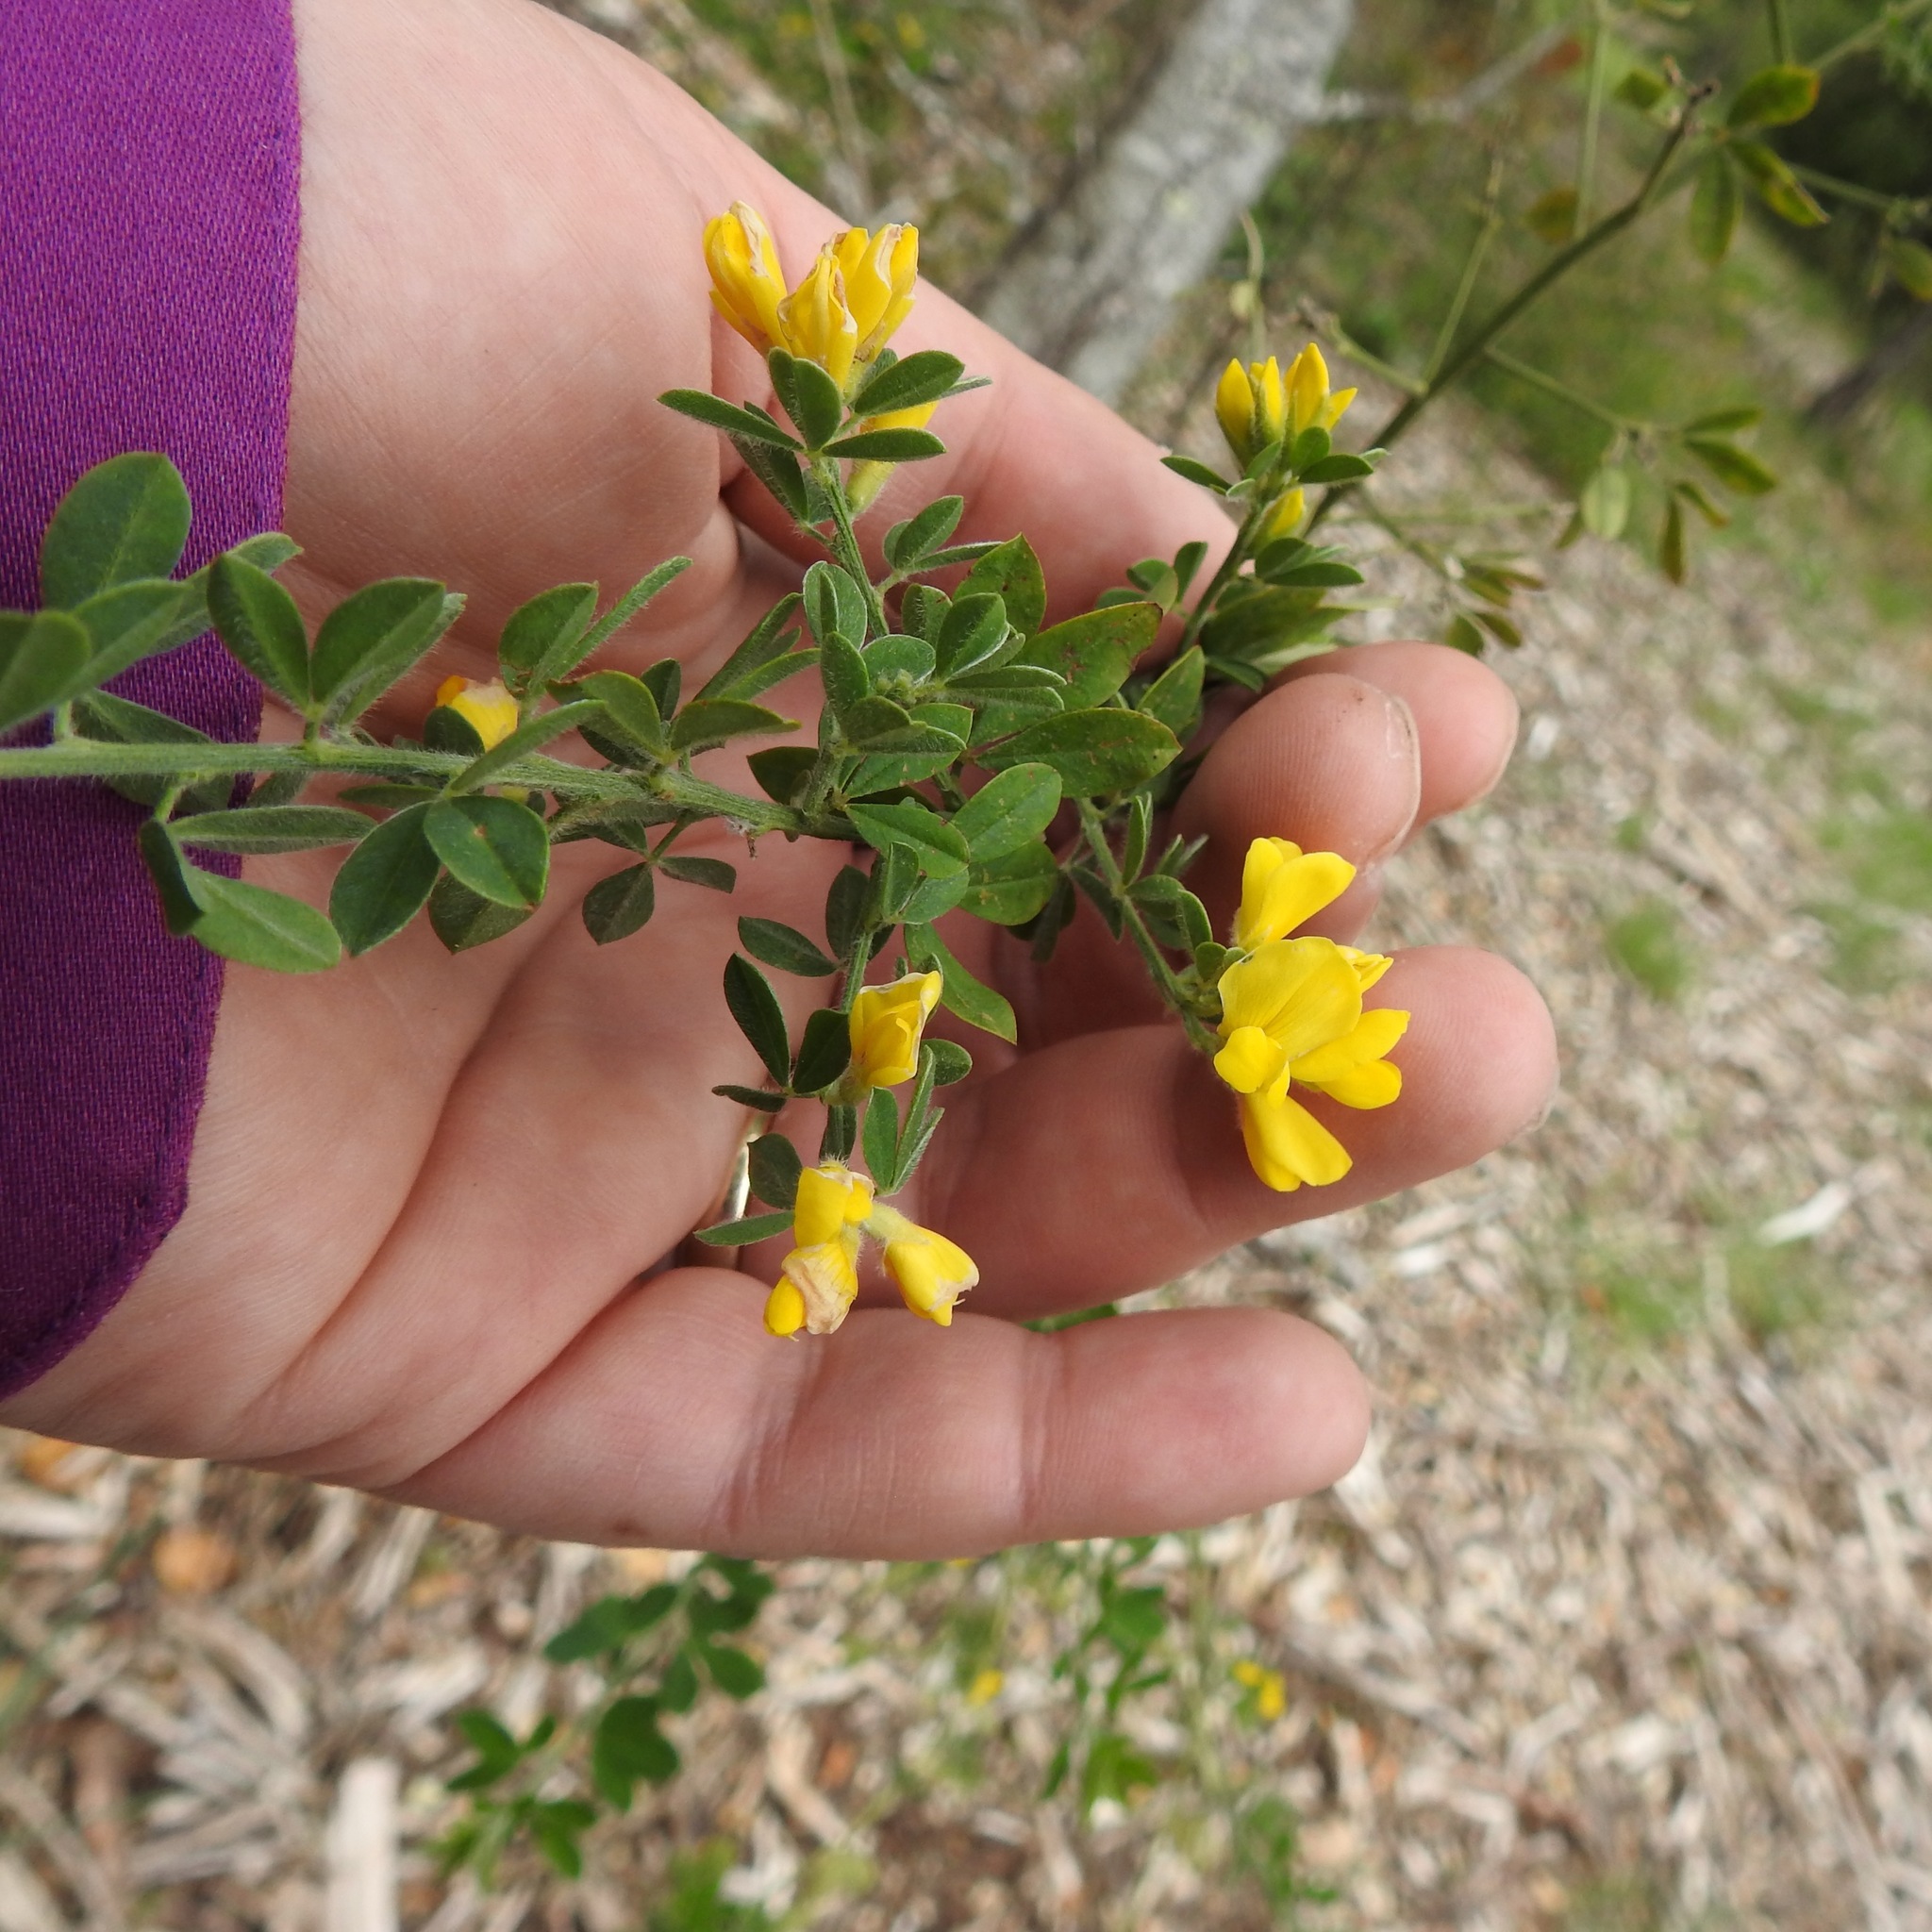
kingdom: Plantae
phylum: Tracheophyta
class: Magnoliopsida
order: Fabales
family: Fabaceae
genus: Genista
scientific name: Genista monspessulana
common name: Montpellier broom
